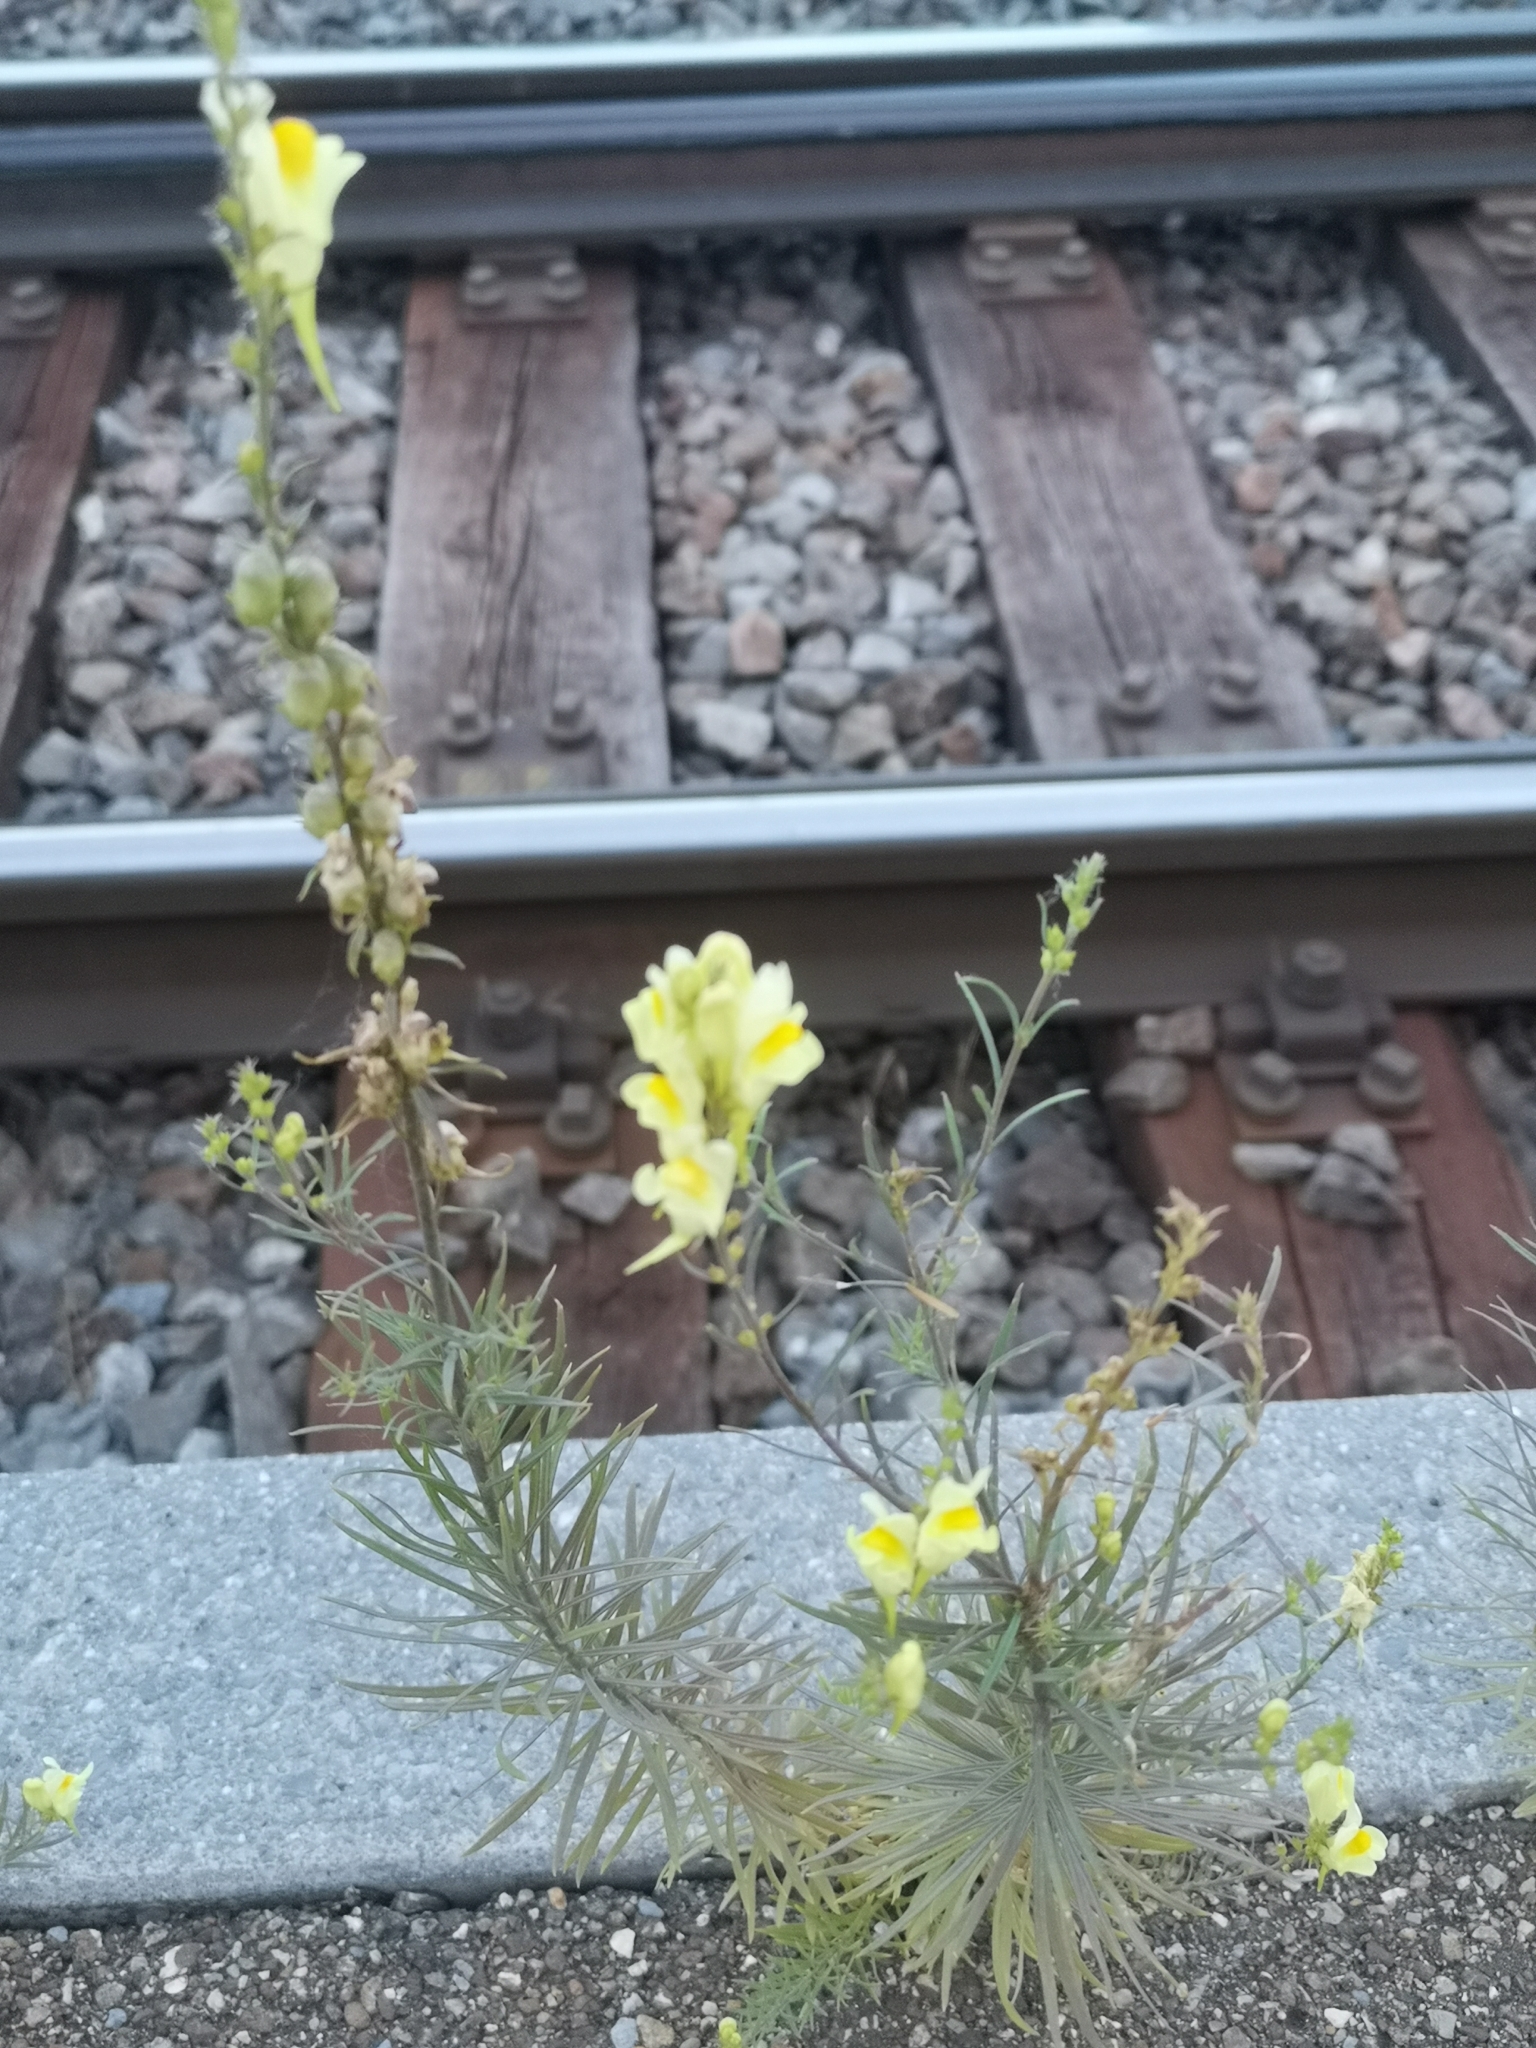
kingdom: Plantae
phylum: Tracheophyta
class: Magnoliopsida
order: Lamiales
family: Plantaginaceae
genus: Linaria
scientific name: Linaria vulgaris
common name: Butter and eggs
